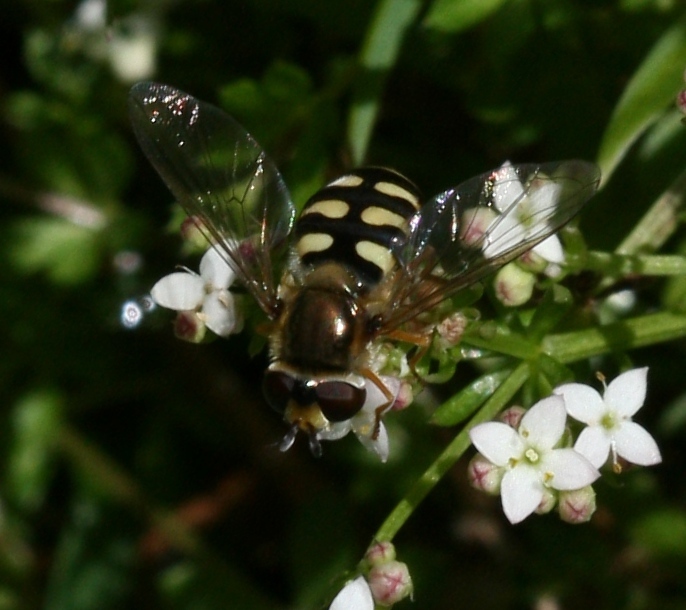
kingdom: Animalia
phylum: Arthropoda
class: Insecta
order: Diptera
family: Syrphidae
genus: Eupeodes
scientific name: Eupeodes corollae
